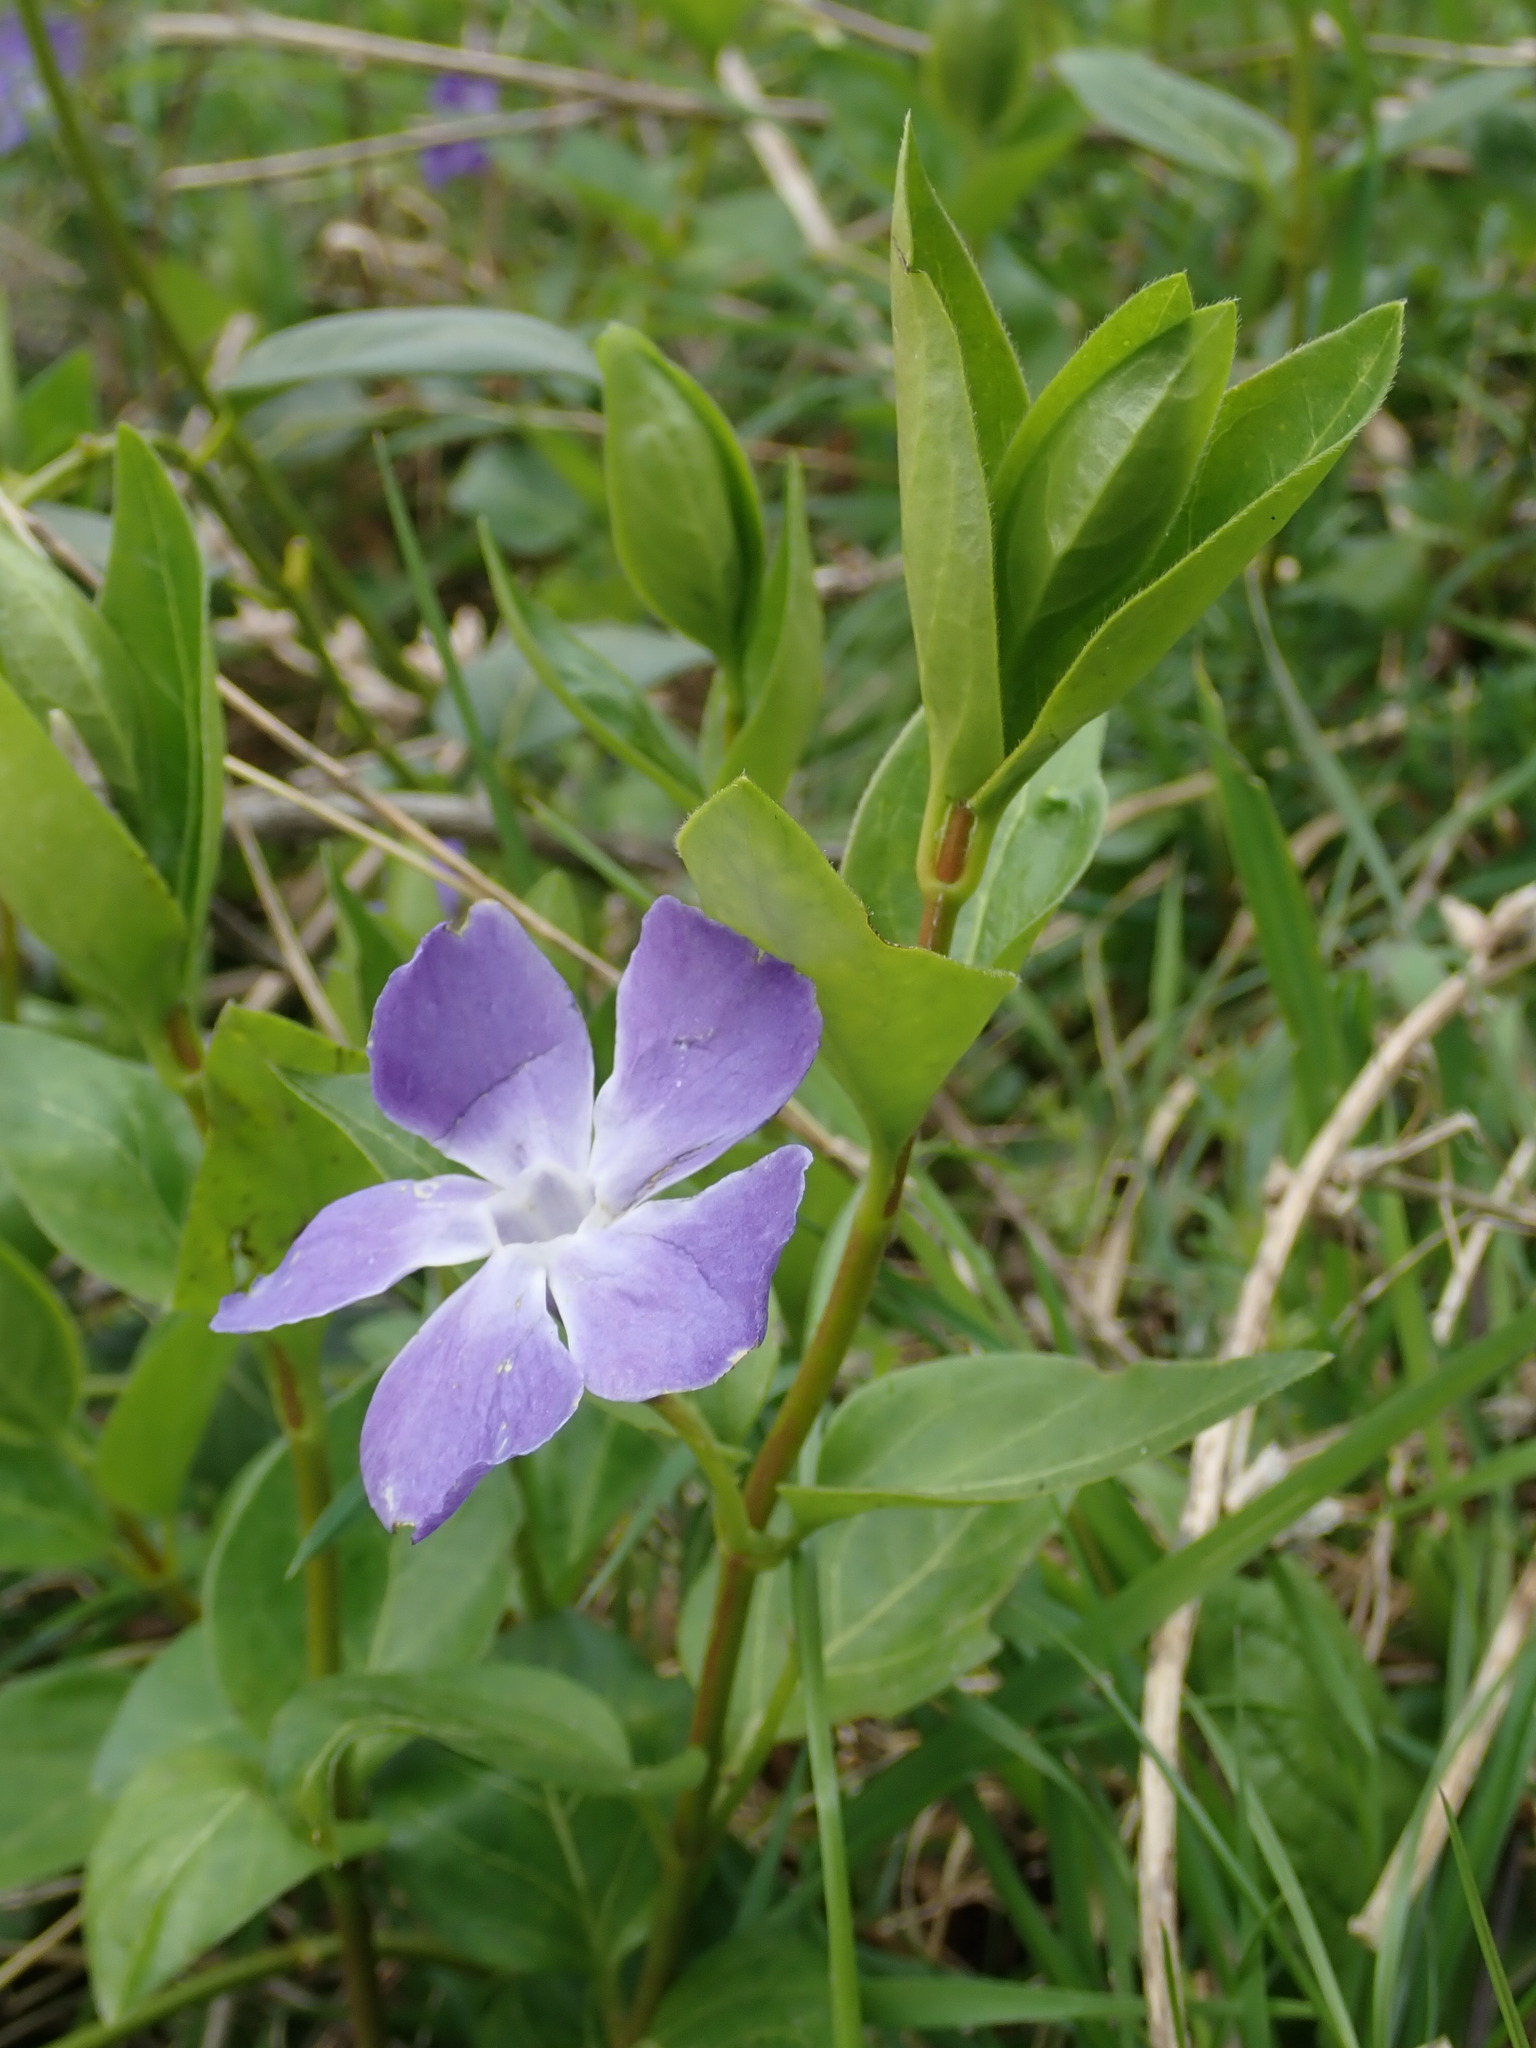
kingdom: Plantae
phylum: Tracheophyta
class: Magnoliopsida
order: Gentianales
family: Apocynaceae
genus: Vinca
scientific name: Vinca major
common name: Greater periwinkle
